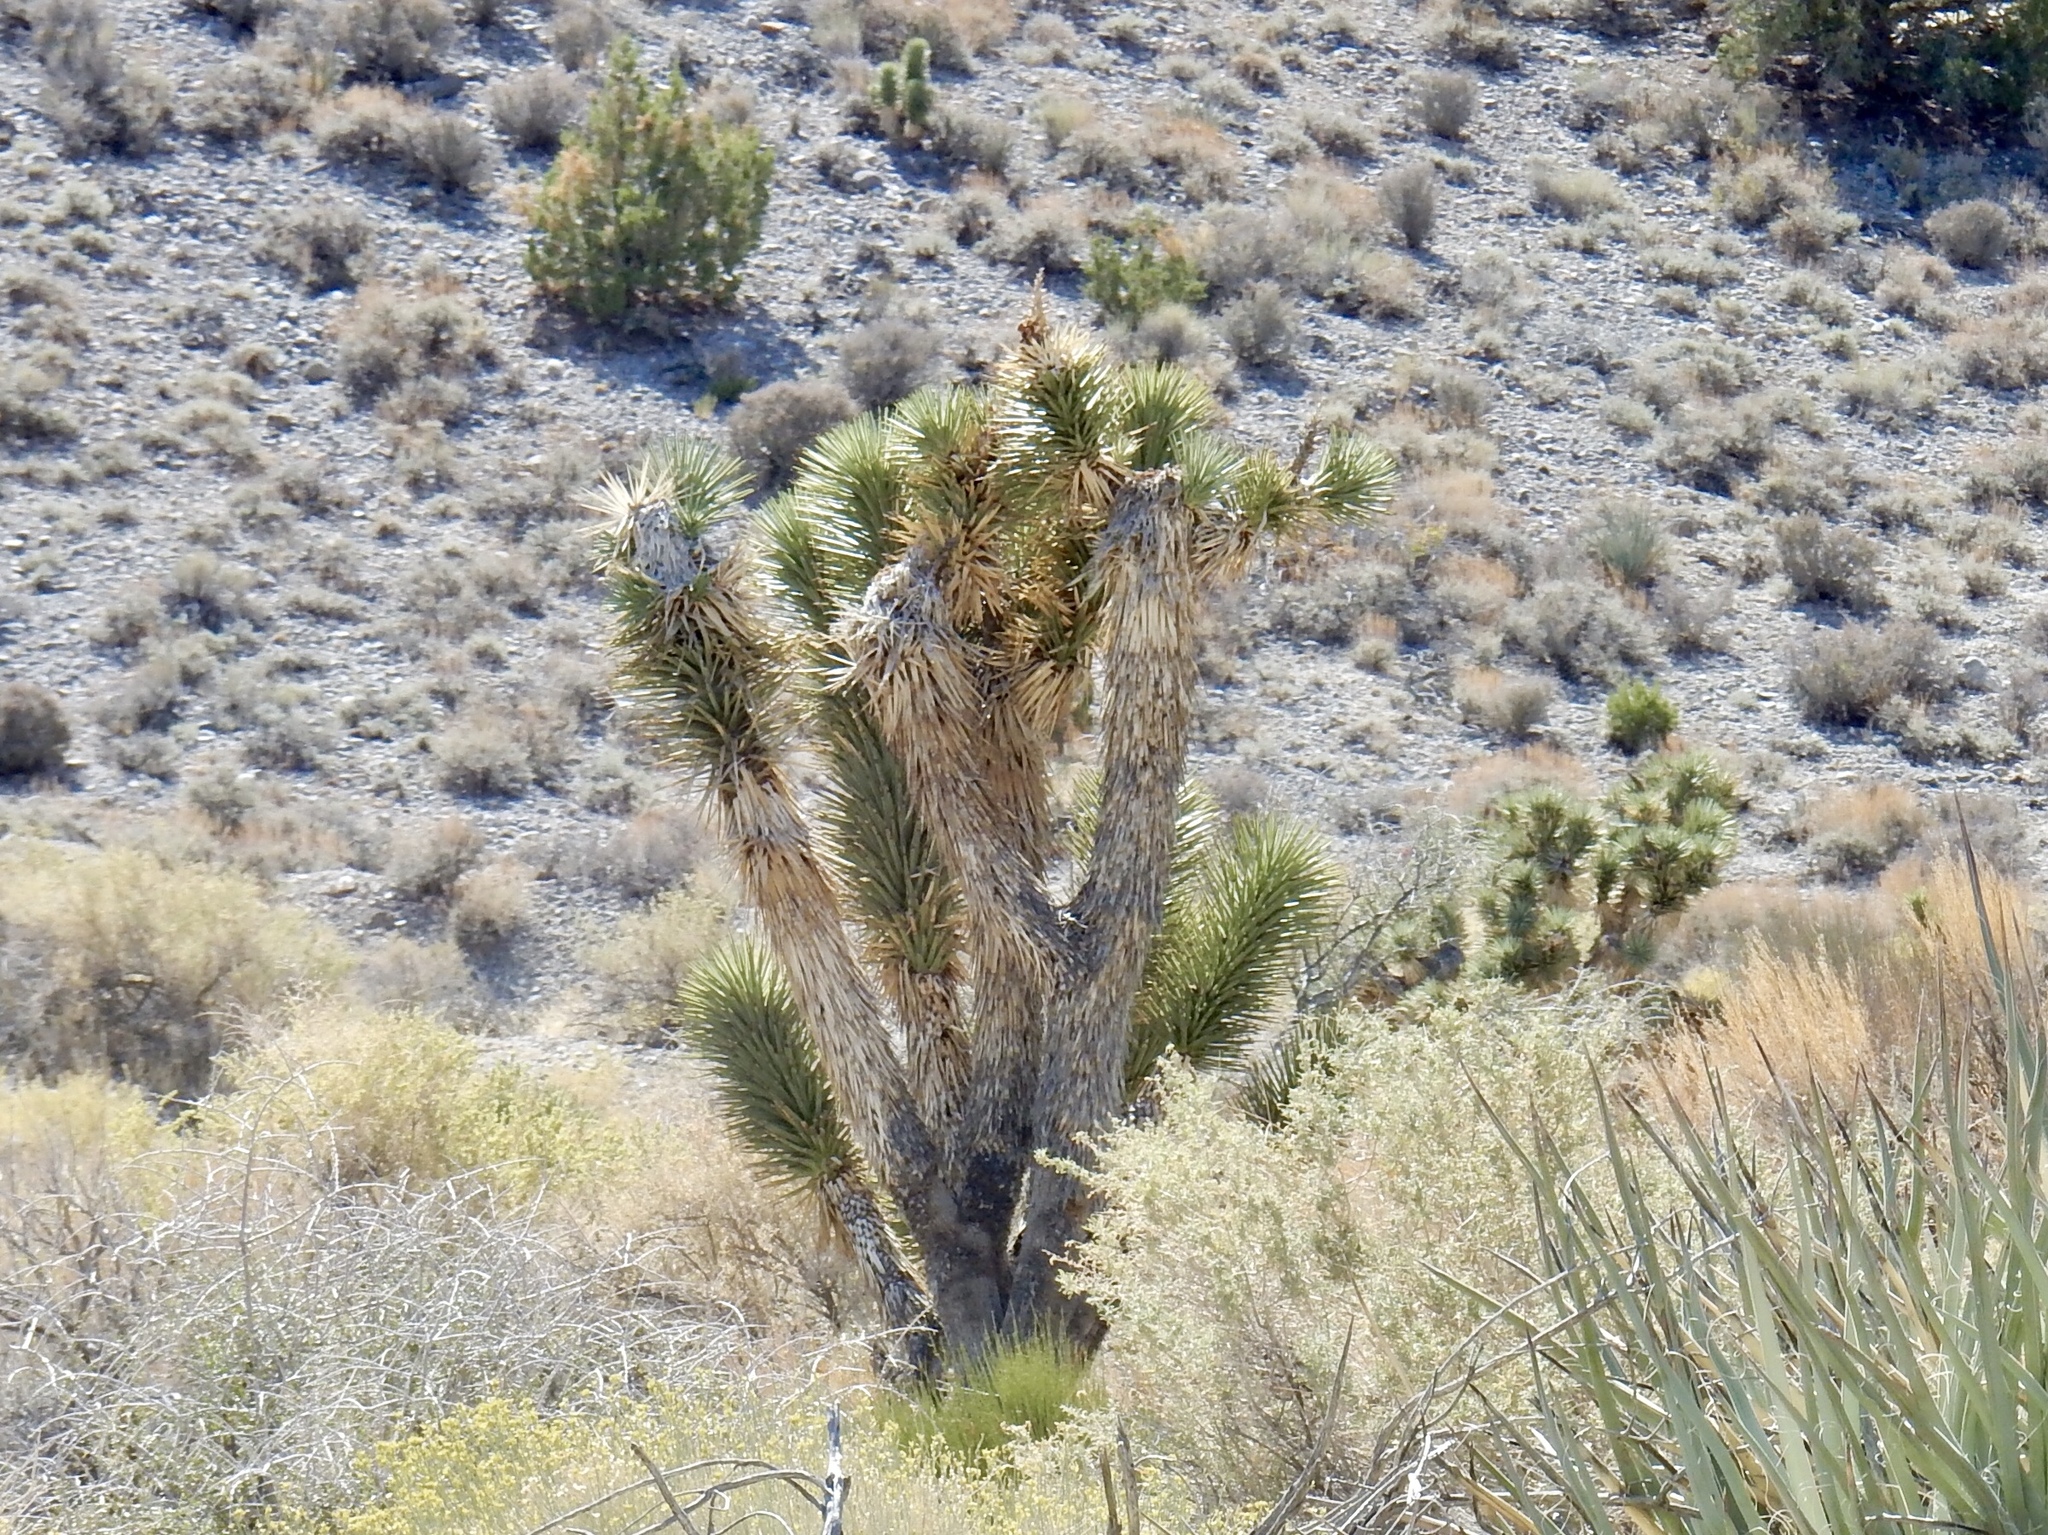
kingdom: Plantae
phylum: Tracheophyta
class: Liliopsida
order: Asparagales
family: Asparagaceae
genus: Yucca
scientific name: Yucca brevifolia
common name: Joshua tree
